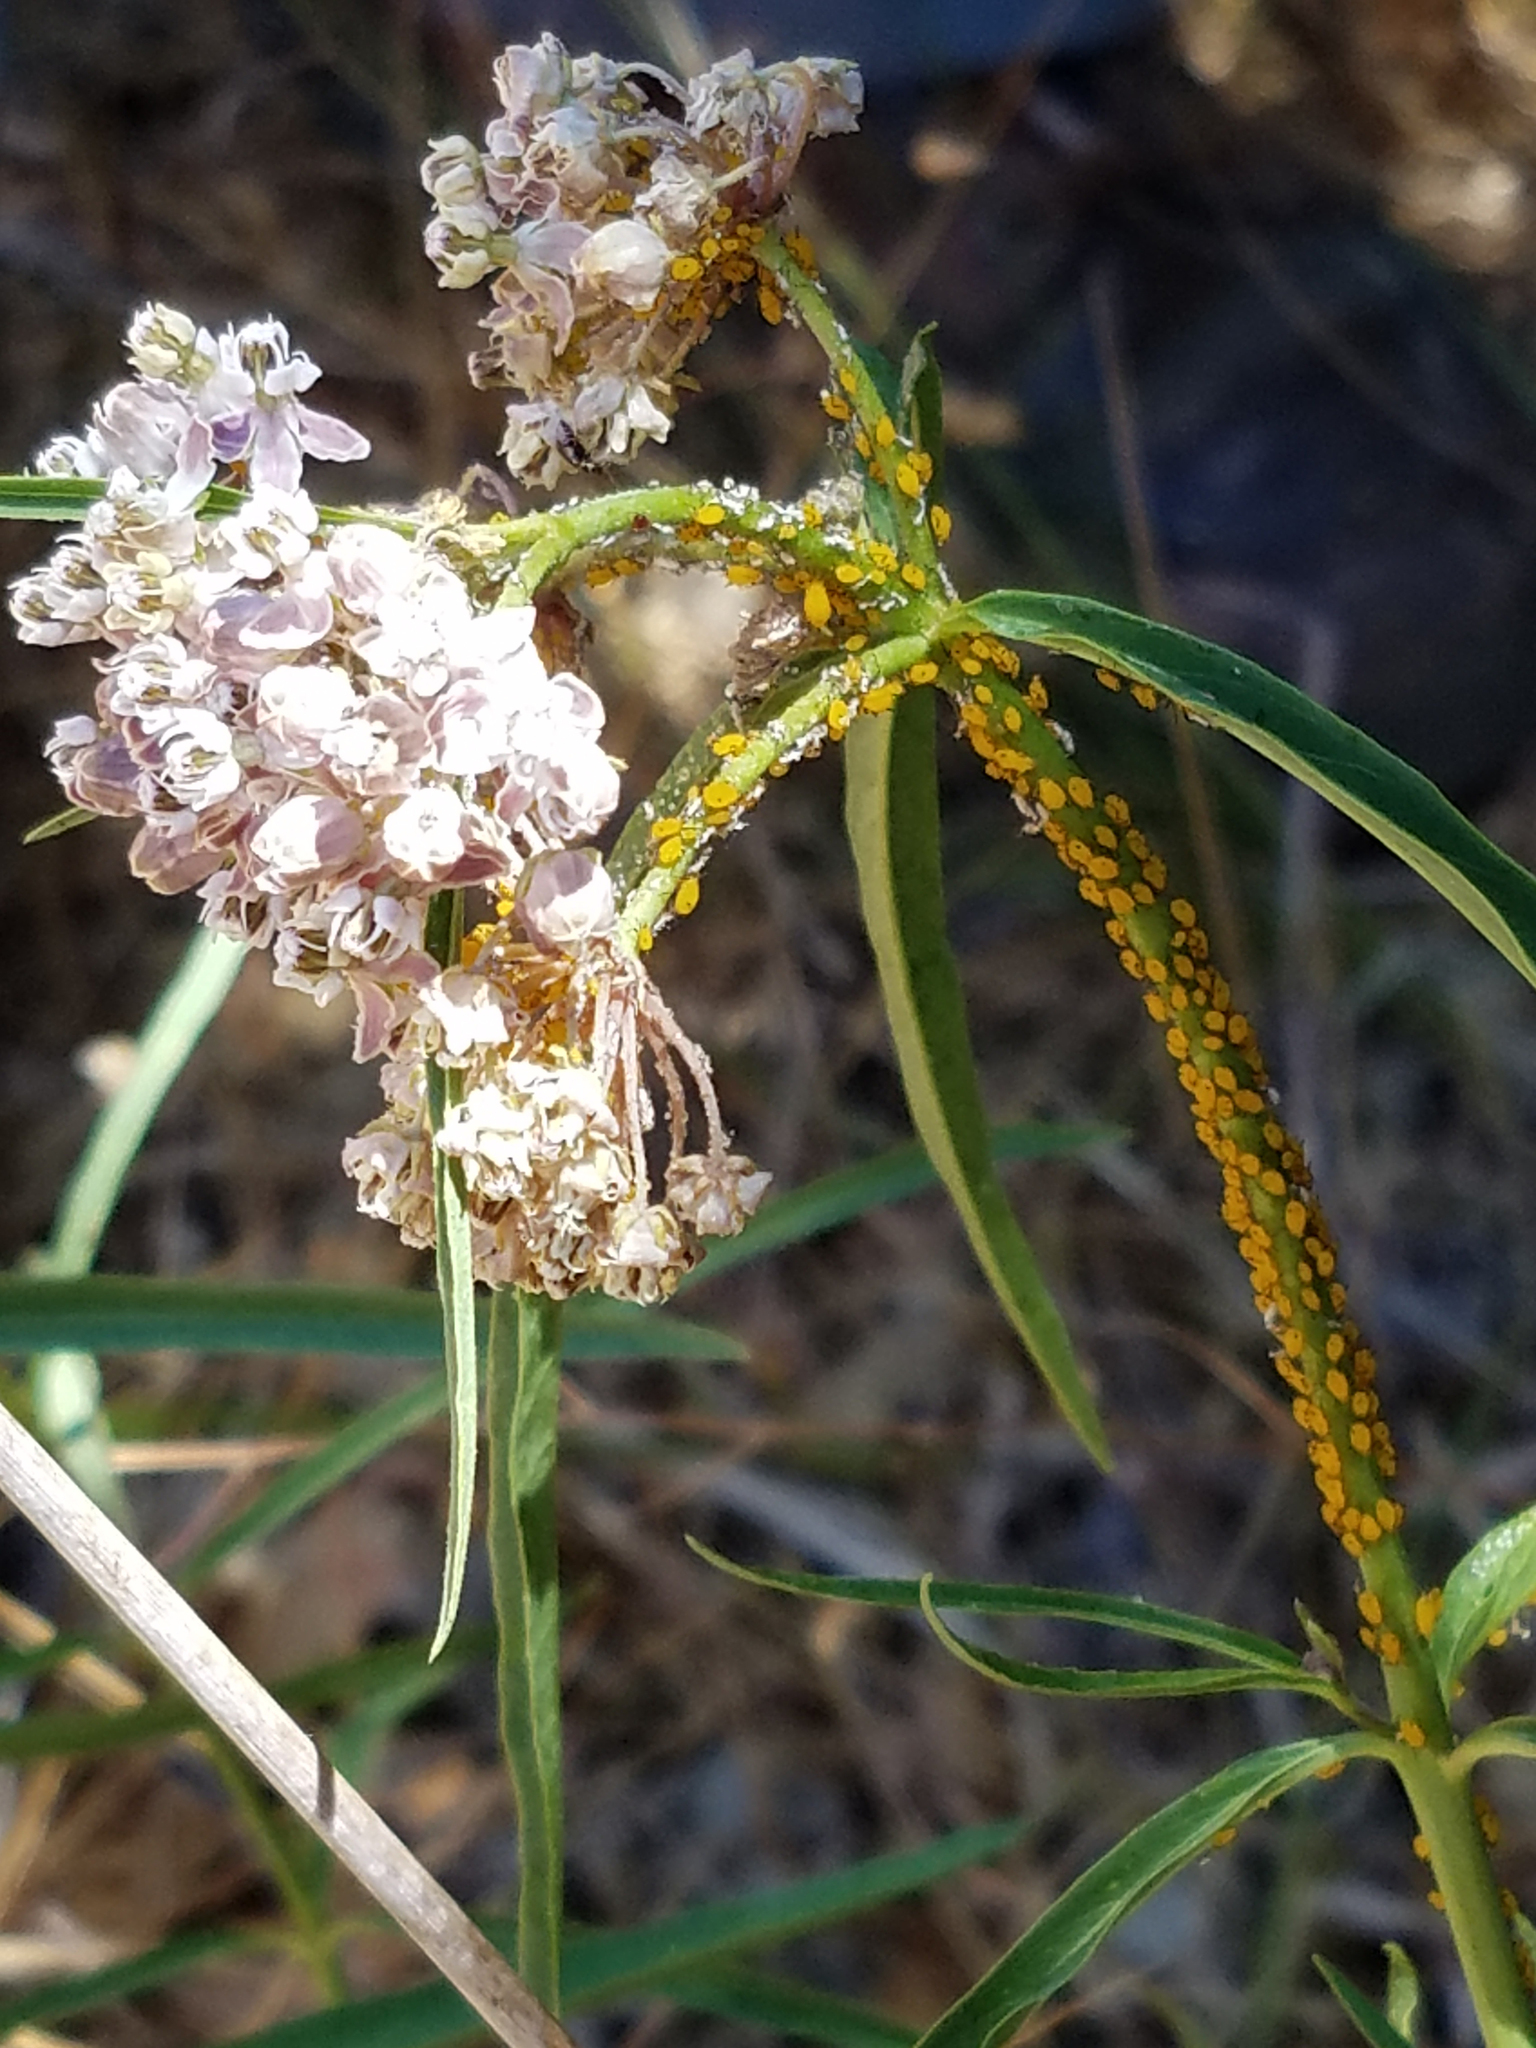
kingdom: Plantae
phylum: Tracheophyta
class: Magnoliopsida
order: Gentianales
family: Apocynaceae
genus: Asclepias
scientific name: Asclepias fascicularis
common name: Mexican milkweed
